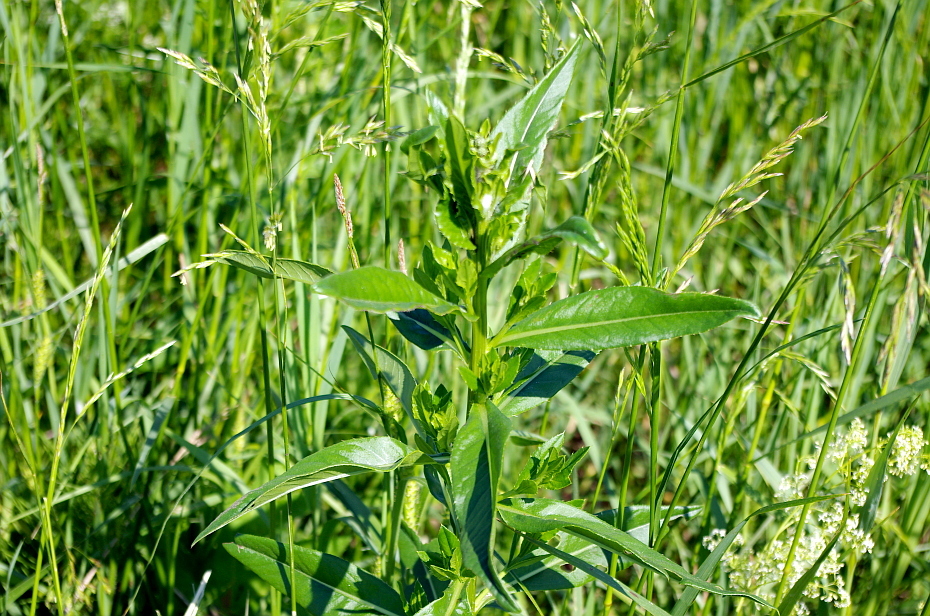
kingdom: Plantae
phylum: Tracheophyta
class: Magnoliopsida
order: Asterales
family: Asteraceae
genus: Cirsium
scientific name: Cirsium arvense
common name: Creeping thistle
